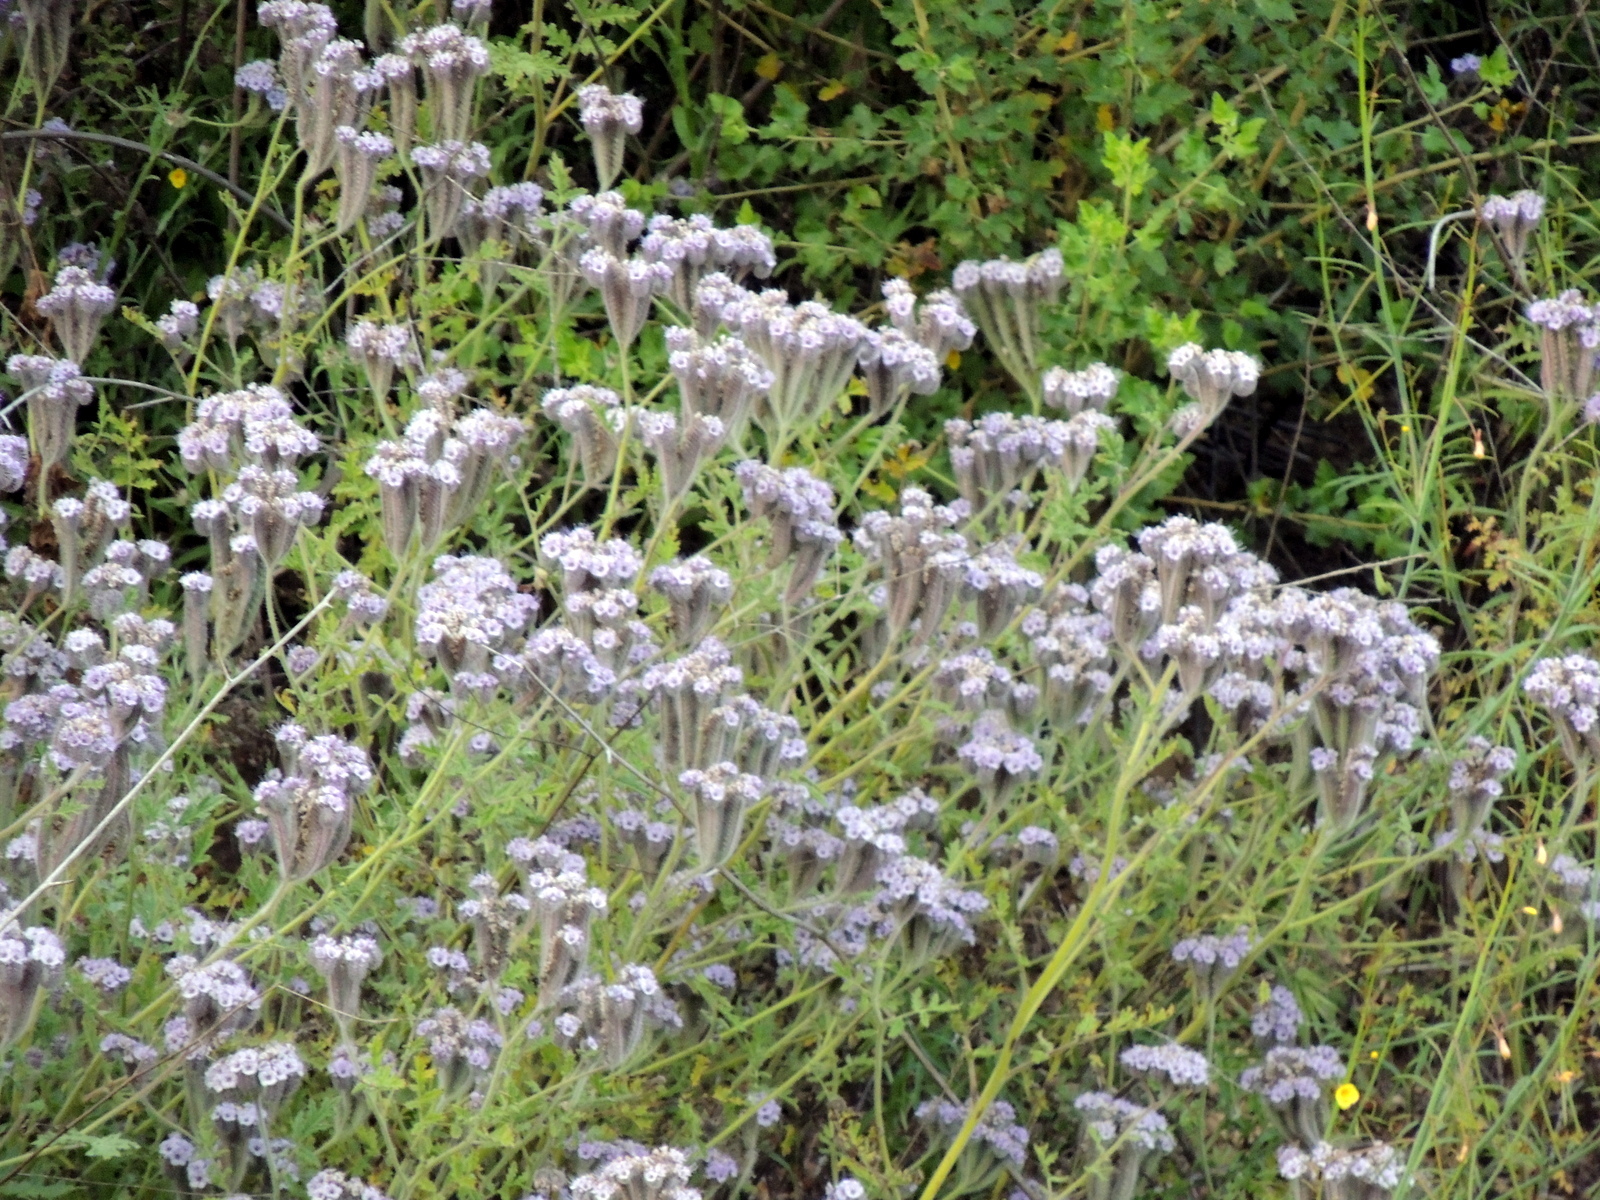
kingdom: Plantae
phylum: Tracheophyta
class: Magnoliopsida
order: Boraginales
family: Hydrophyllaceae
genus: Phacelia
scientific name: Phacelia hubbyi
